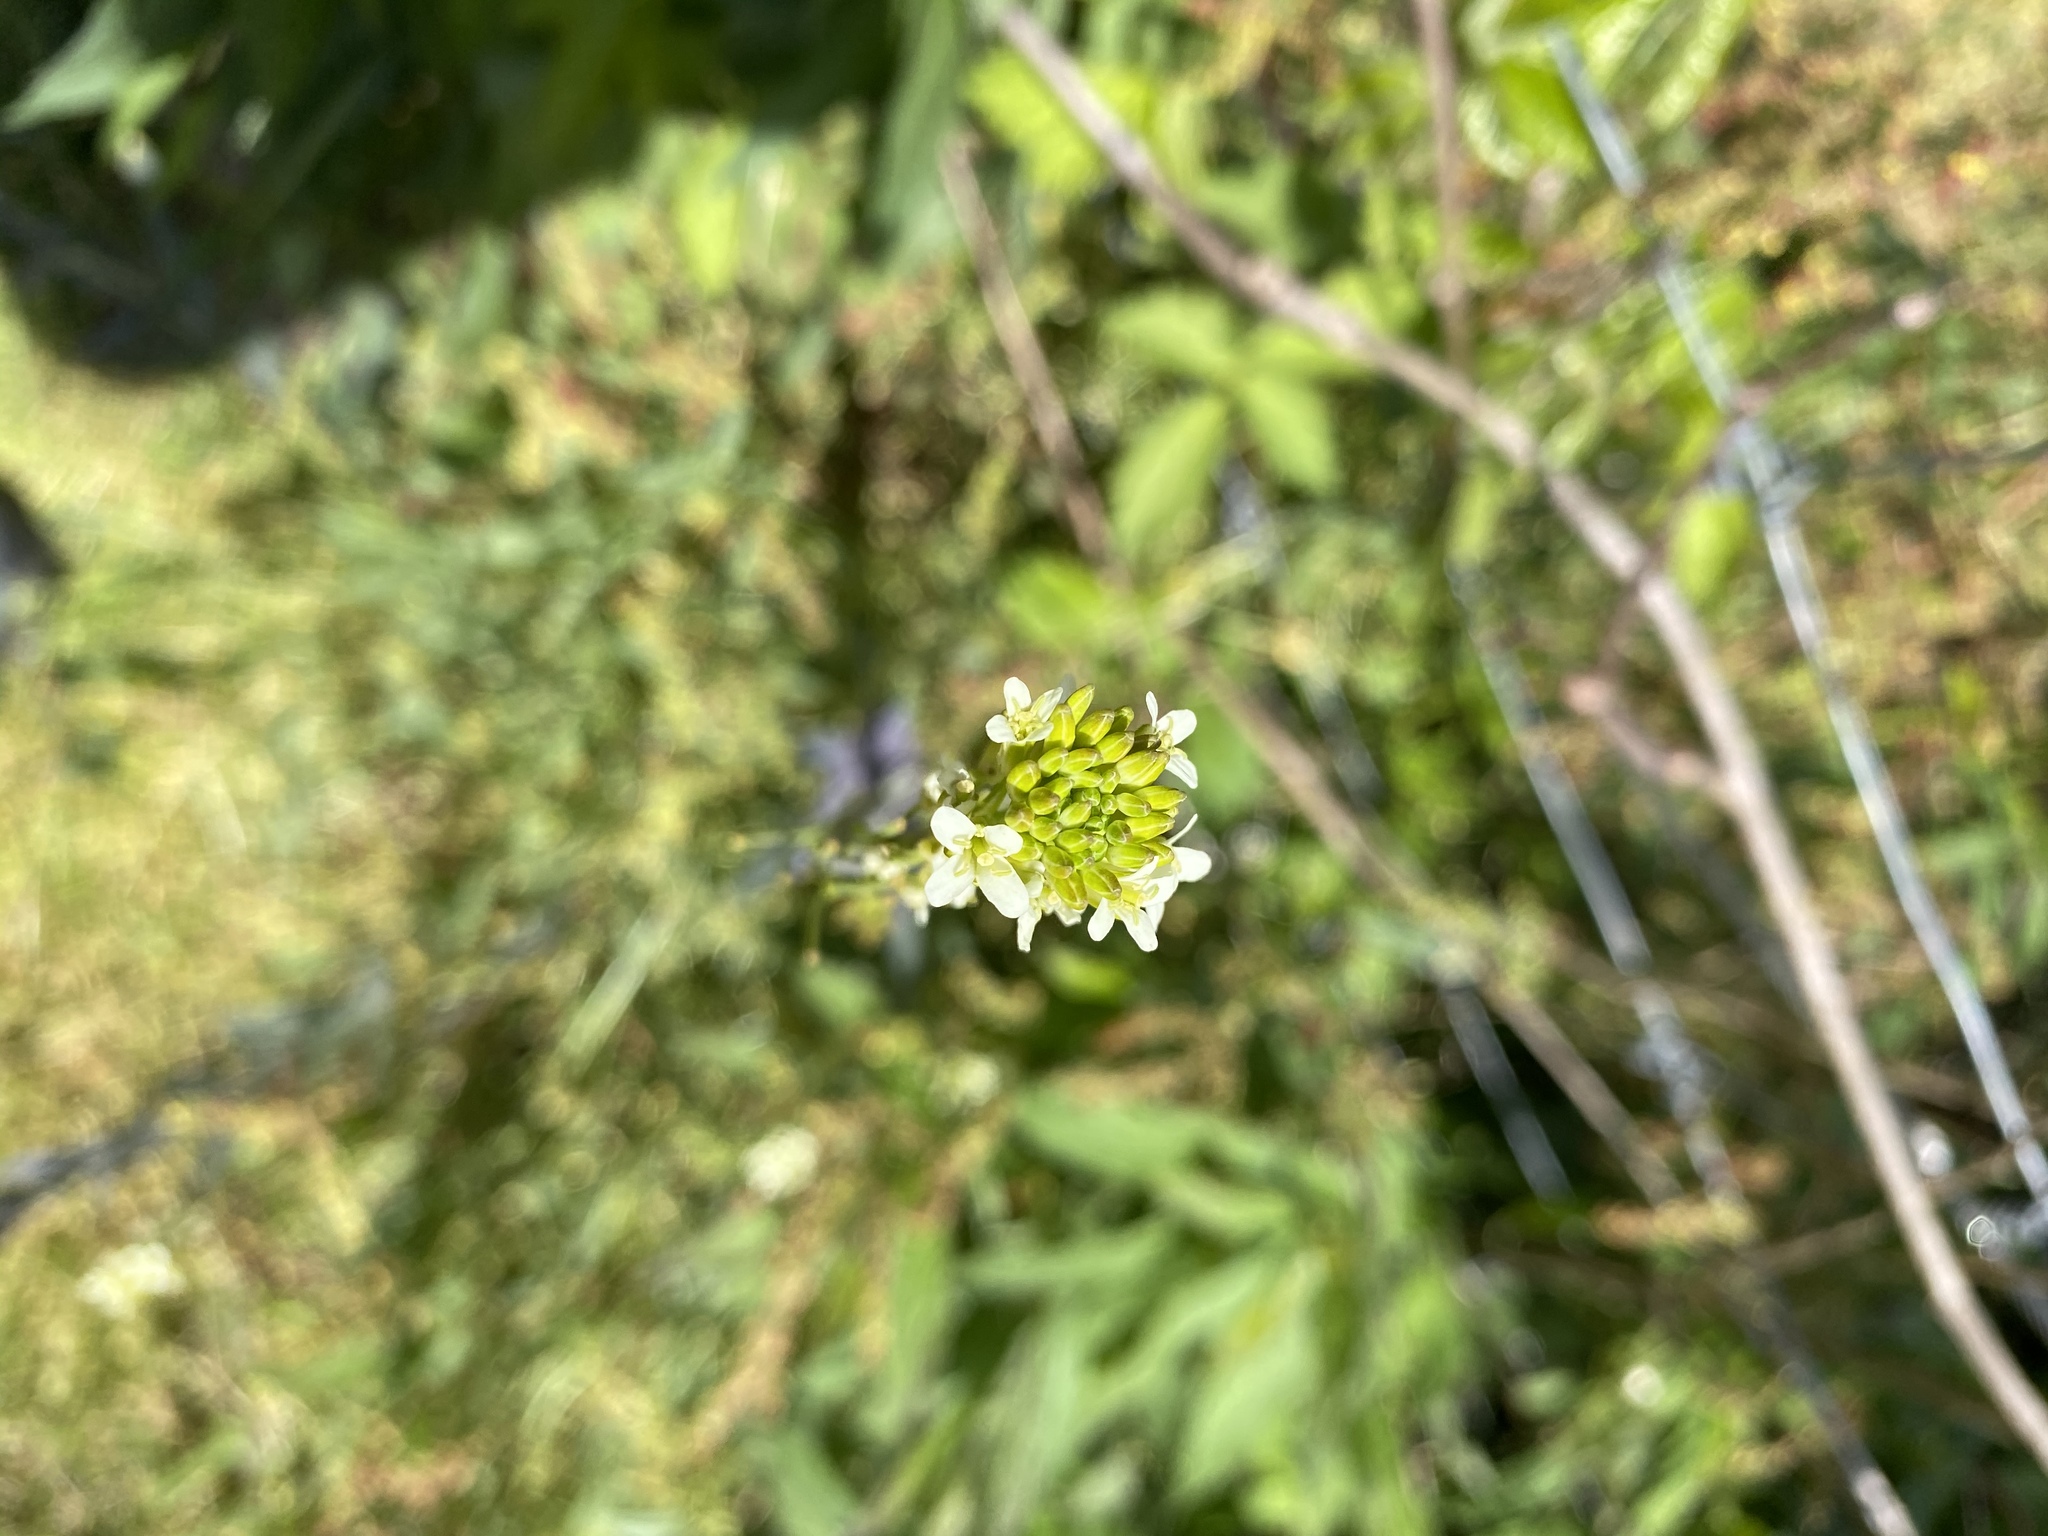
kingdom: Plantae
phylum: Tracheophyta
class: Magnoliopsida
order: Brassicales
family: Brassicaceae
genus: Turritis
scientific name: Turritis glabra
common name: Tower rockcress
